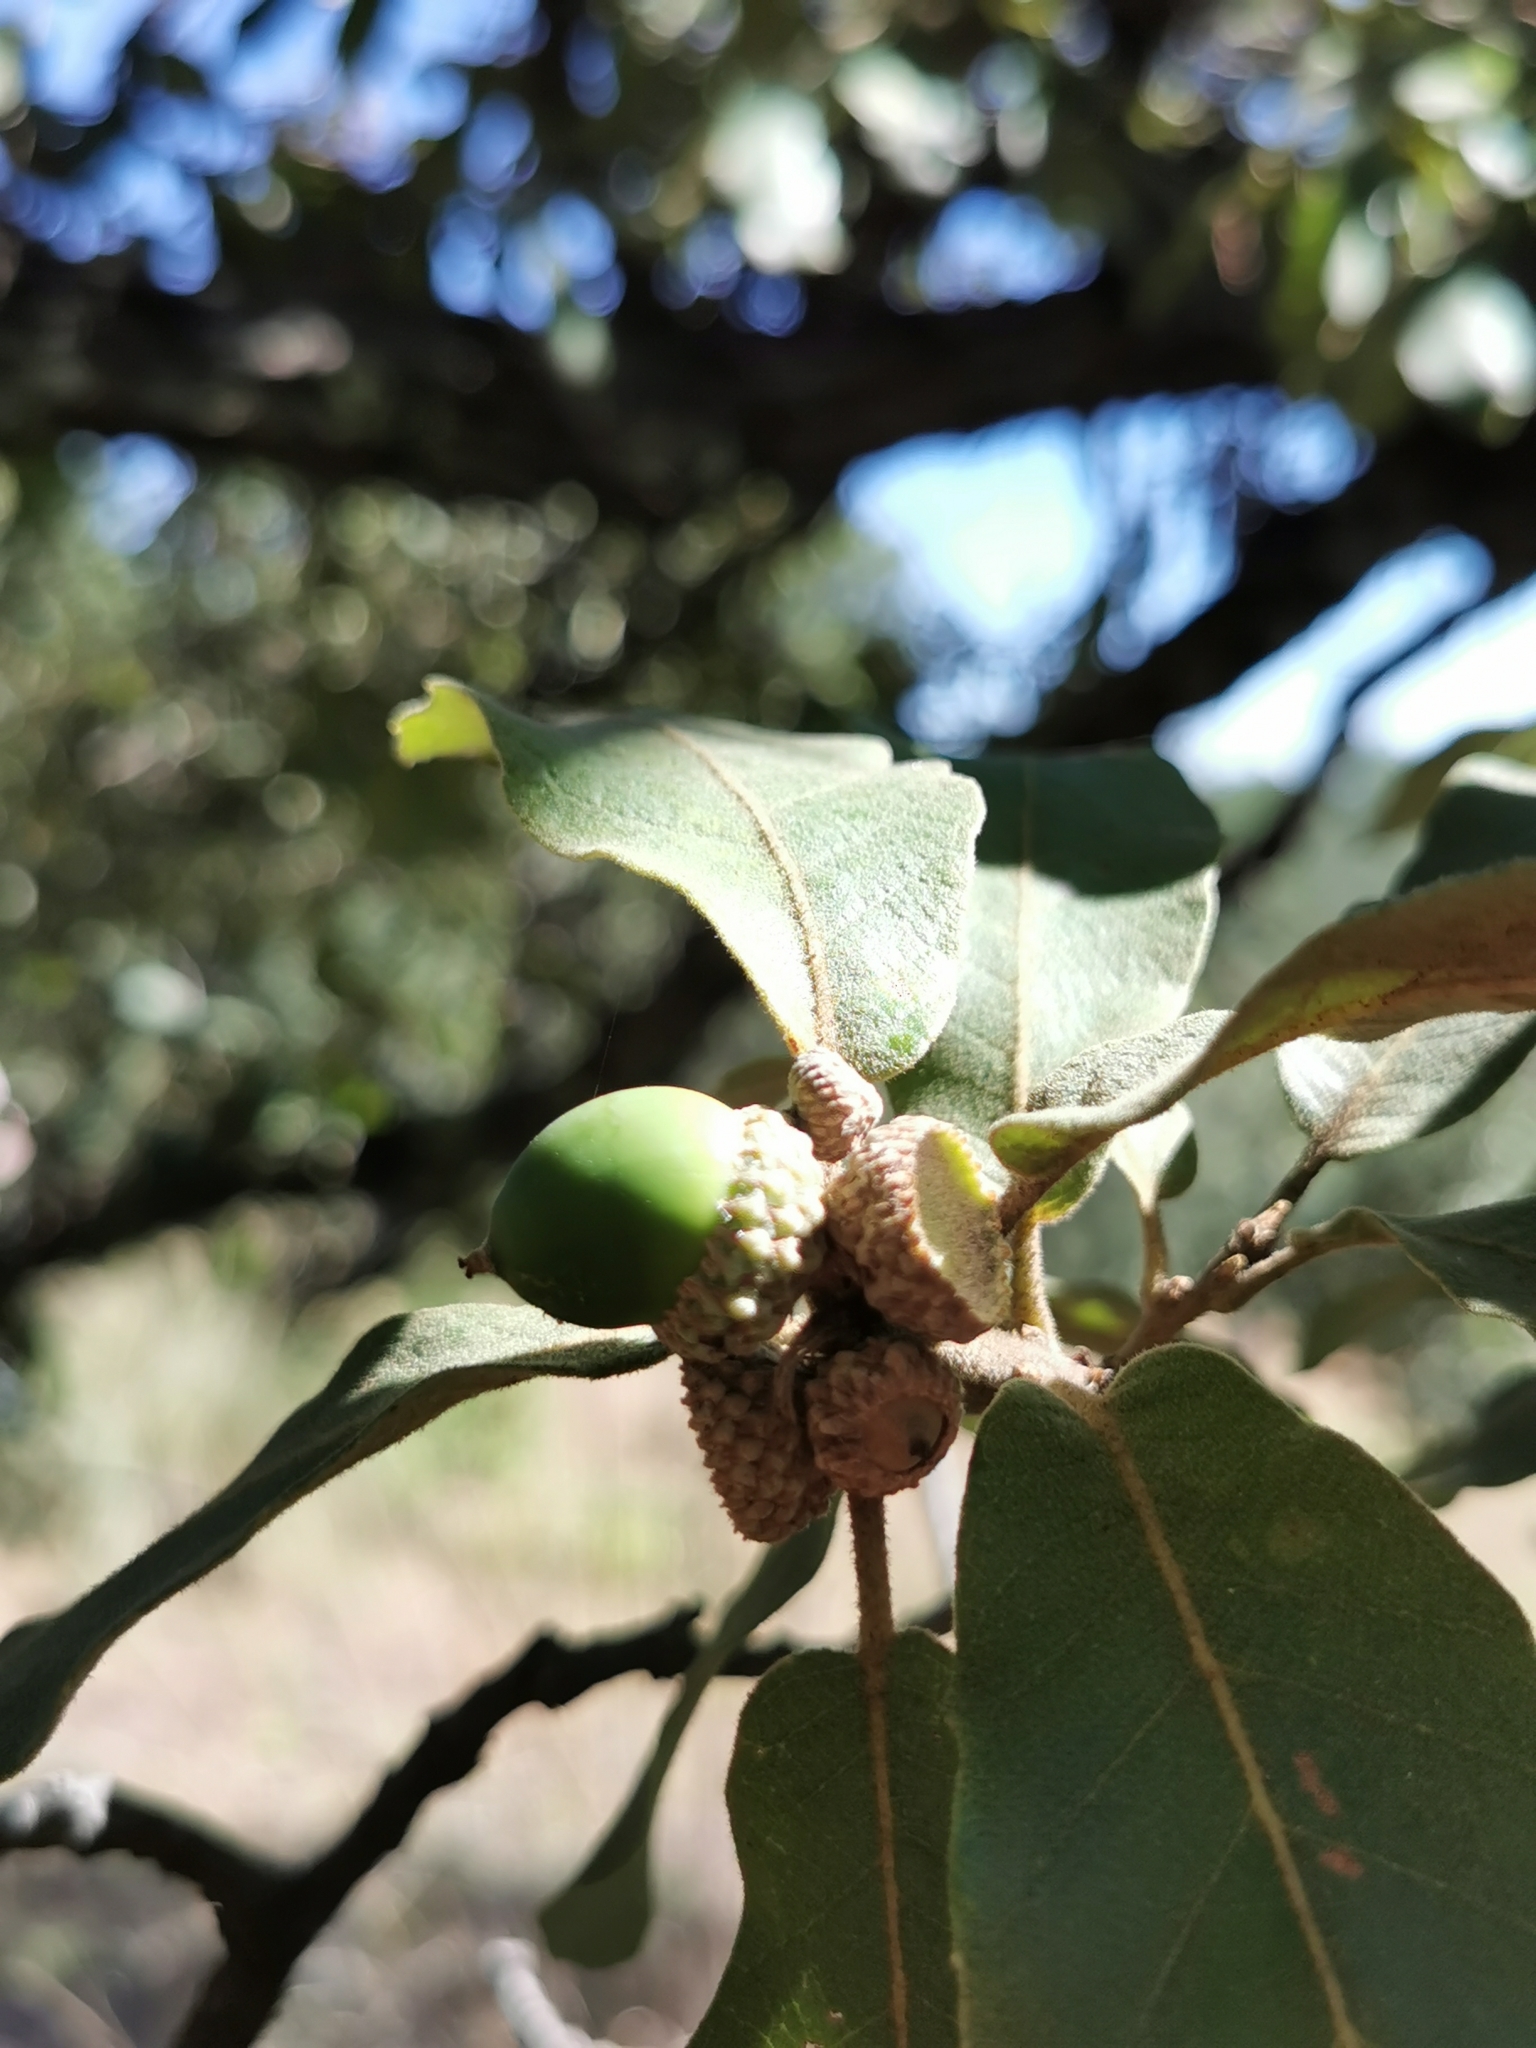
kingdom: Plantae
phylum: Tracheophyta
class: Magnoliopsida
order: Fagales
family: Fagaceae
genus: Quercus
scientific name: Quercus convallata
